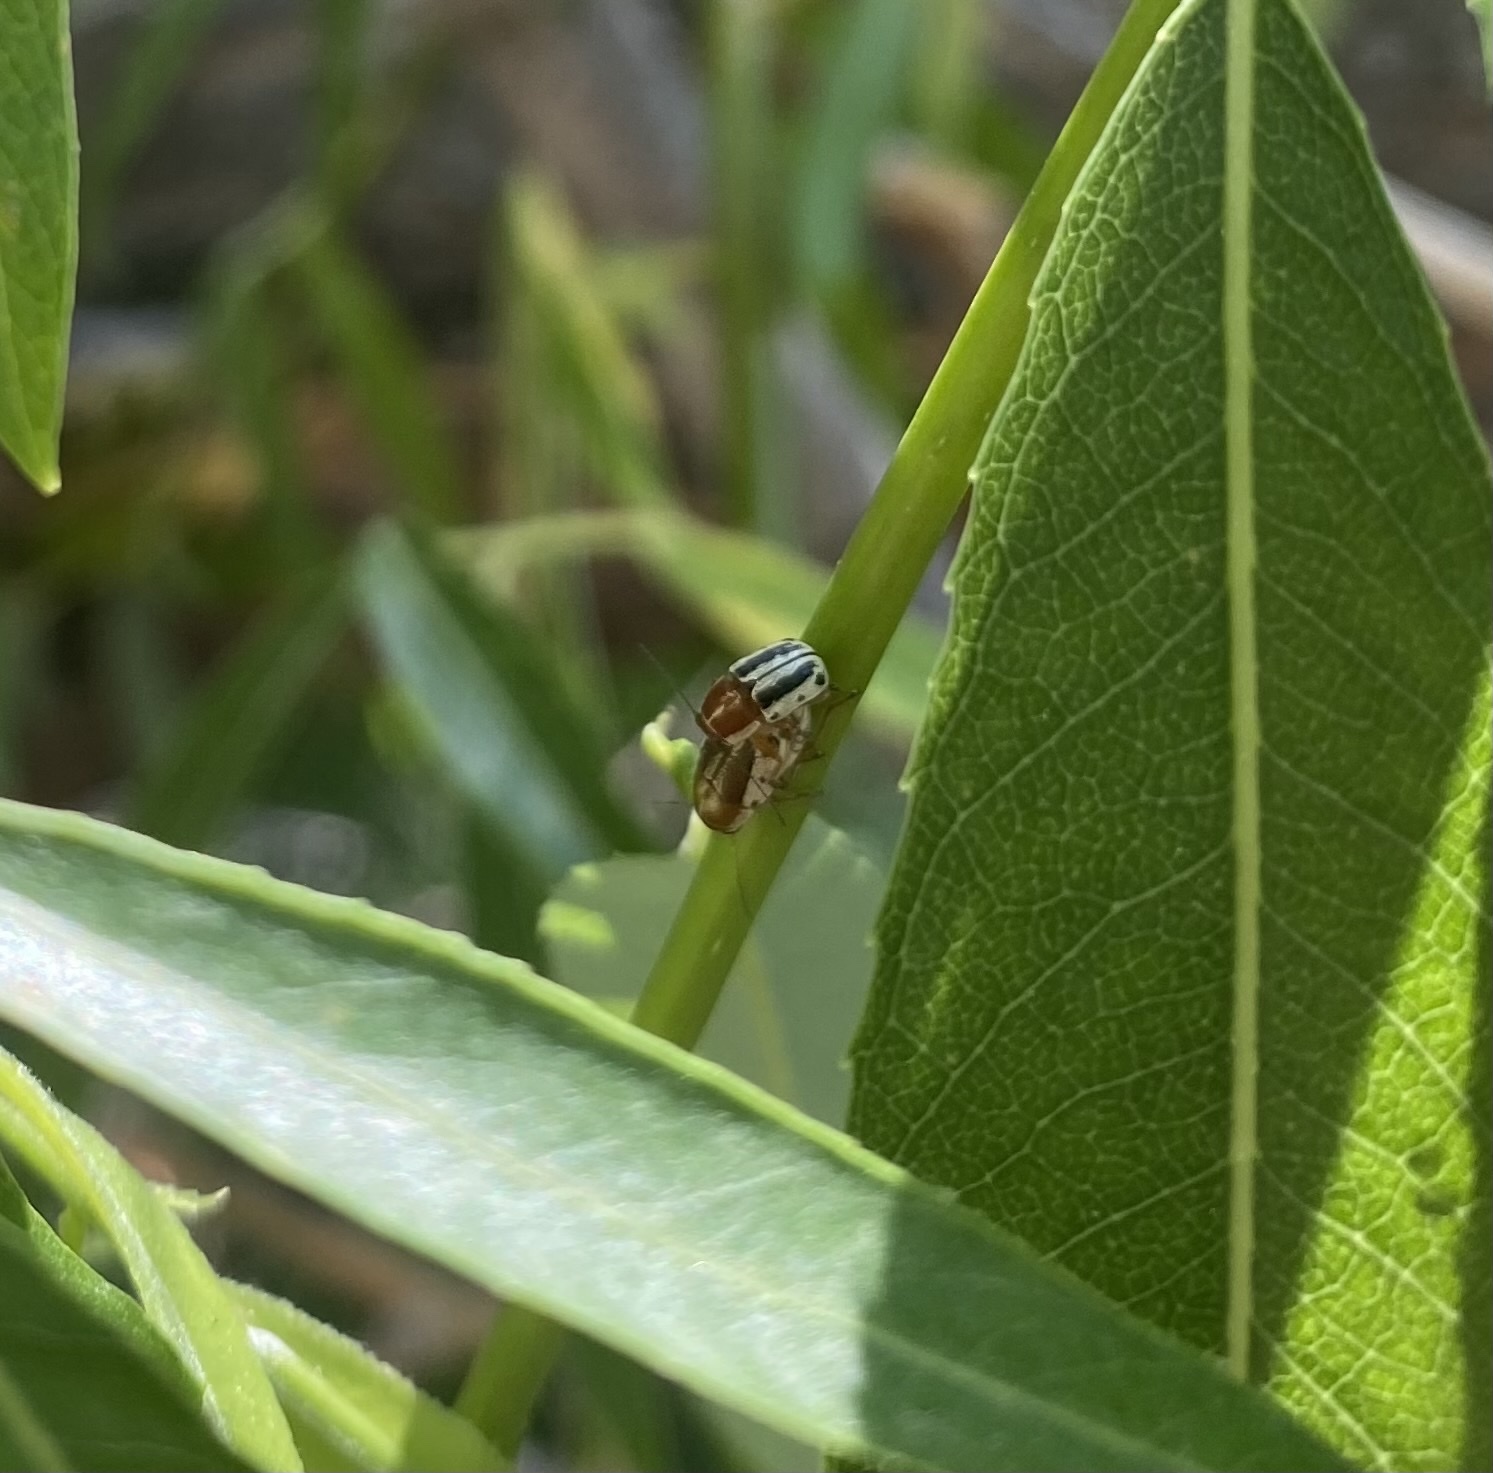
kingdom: Animalia
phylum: Arthropoda
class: Insecta
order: Coleoptera
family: Chrysomelidae
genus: Pachybrachis
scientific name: Pachybrachis bivittatus
